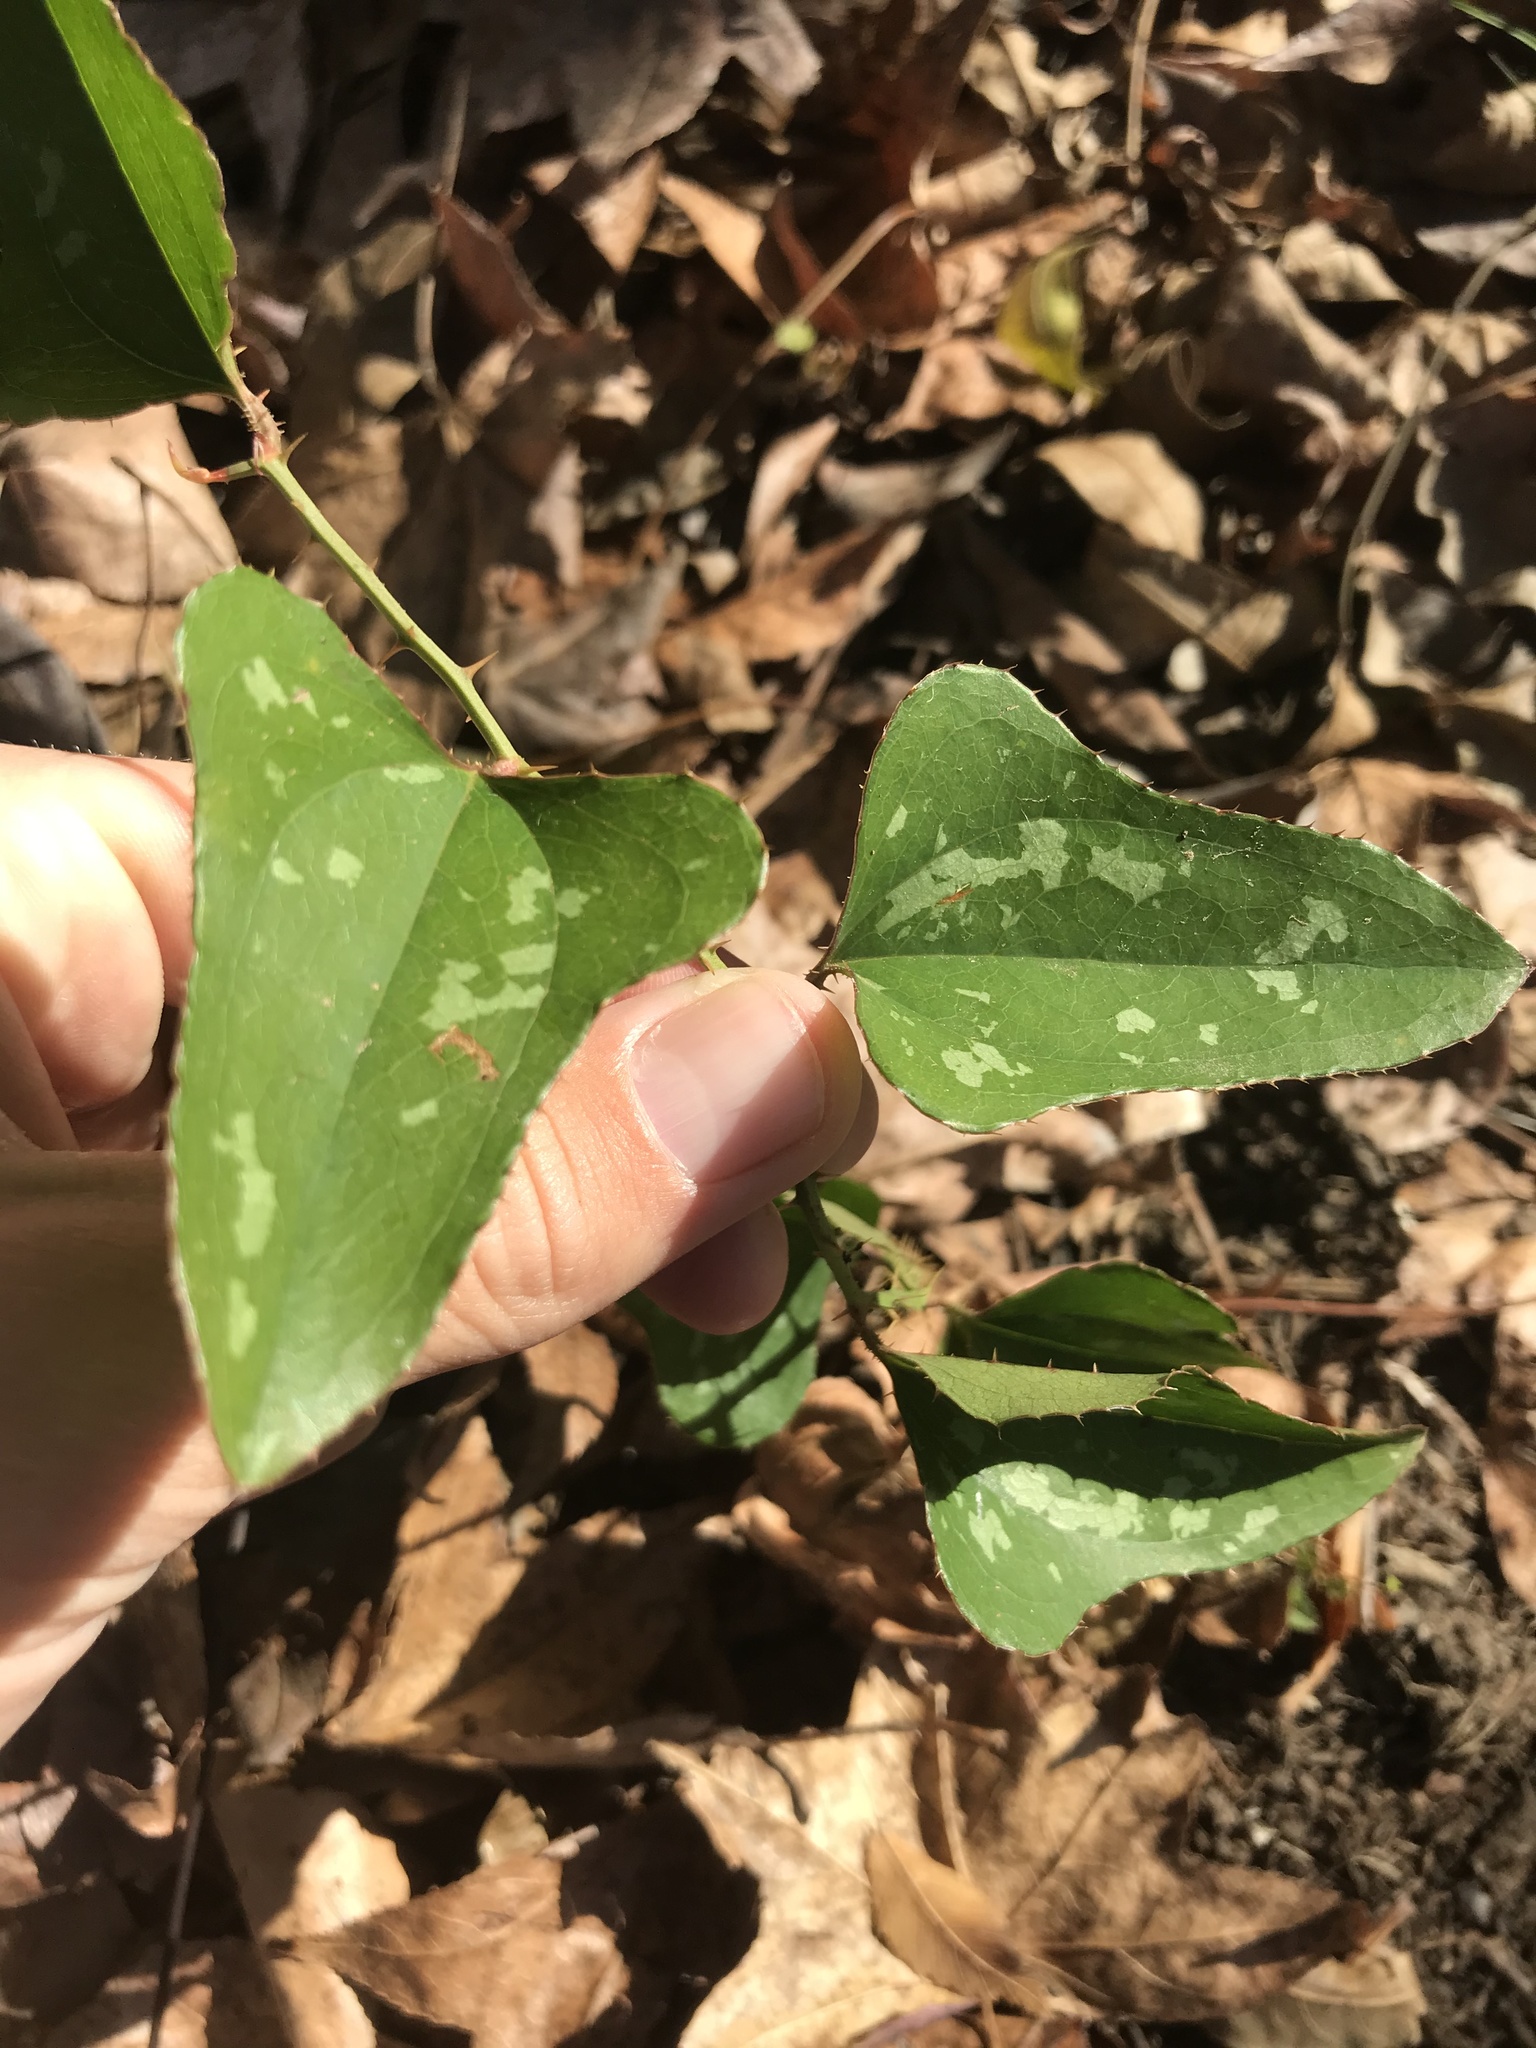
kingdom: Plantae
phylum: Tracheophyta
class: Liliopsida
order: Liliales
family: Smilacaceae
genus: Smilax
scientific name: Smilax bona-nox
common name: Catbrier
